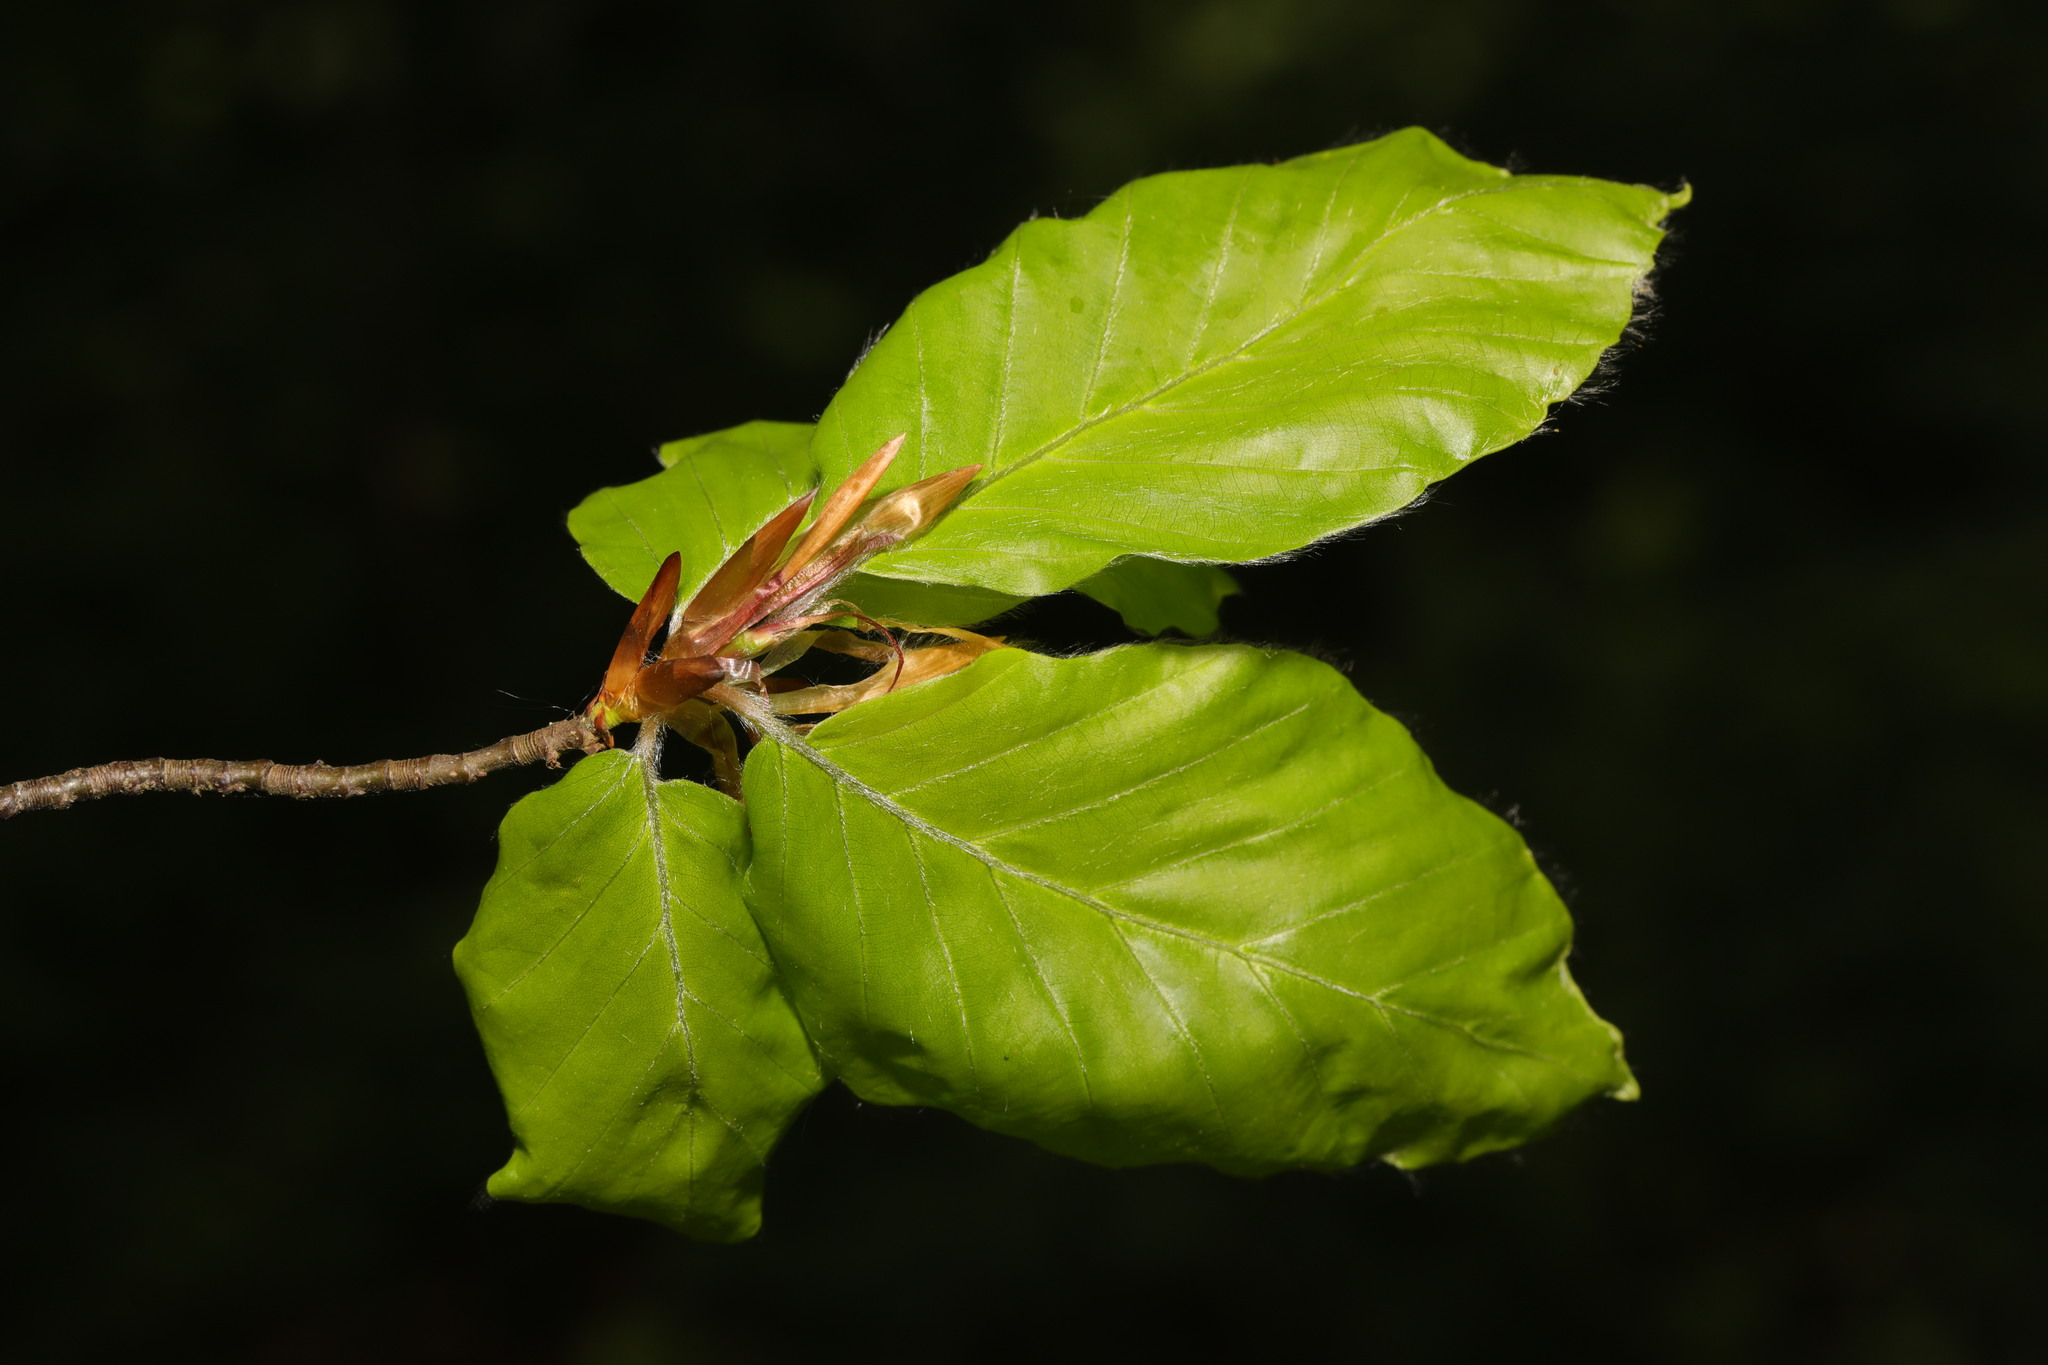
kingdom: Plantae
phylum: Tracheophyta
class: Magnoliopsida
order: Fagales
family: Fagaceae
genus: Fagus
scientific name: Fagus sylvatica
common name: Beech
